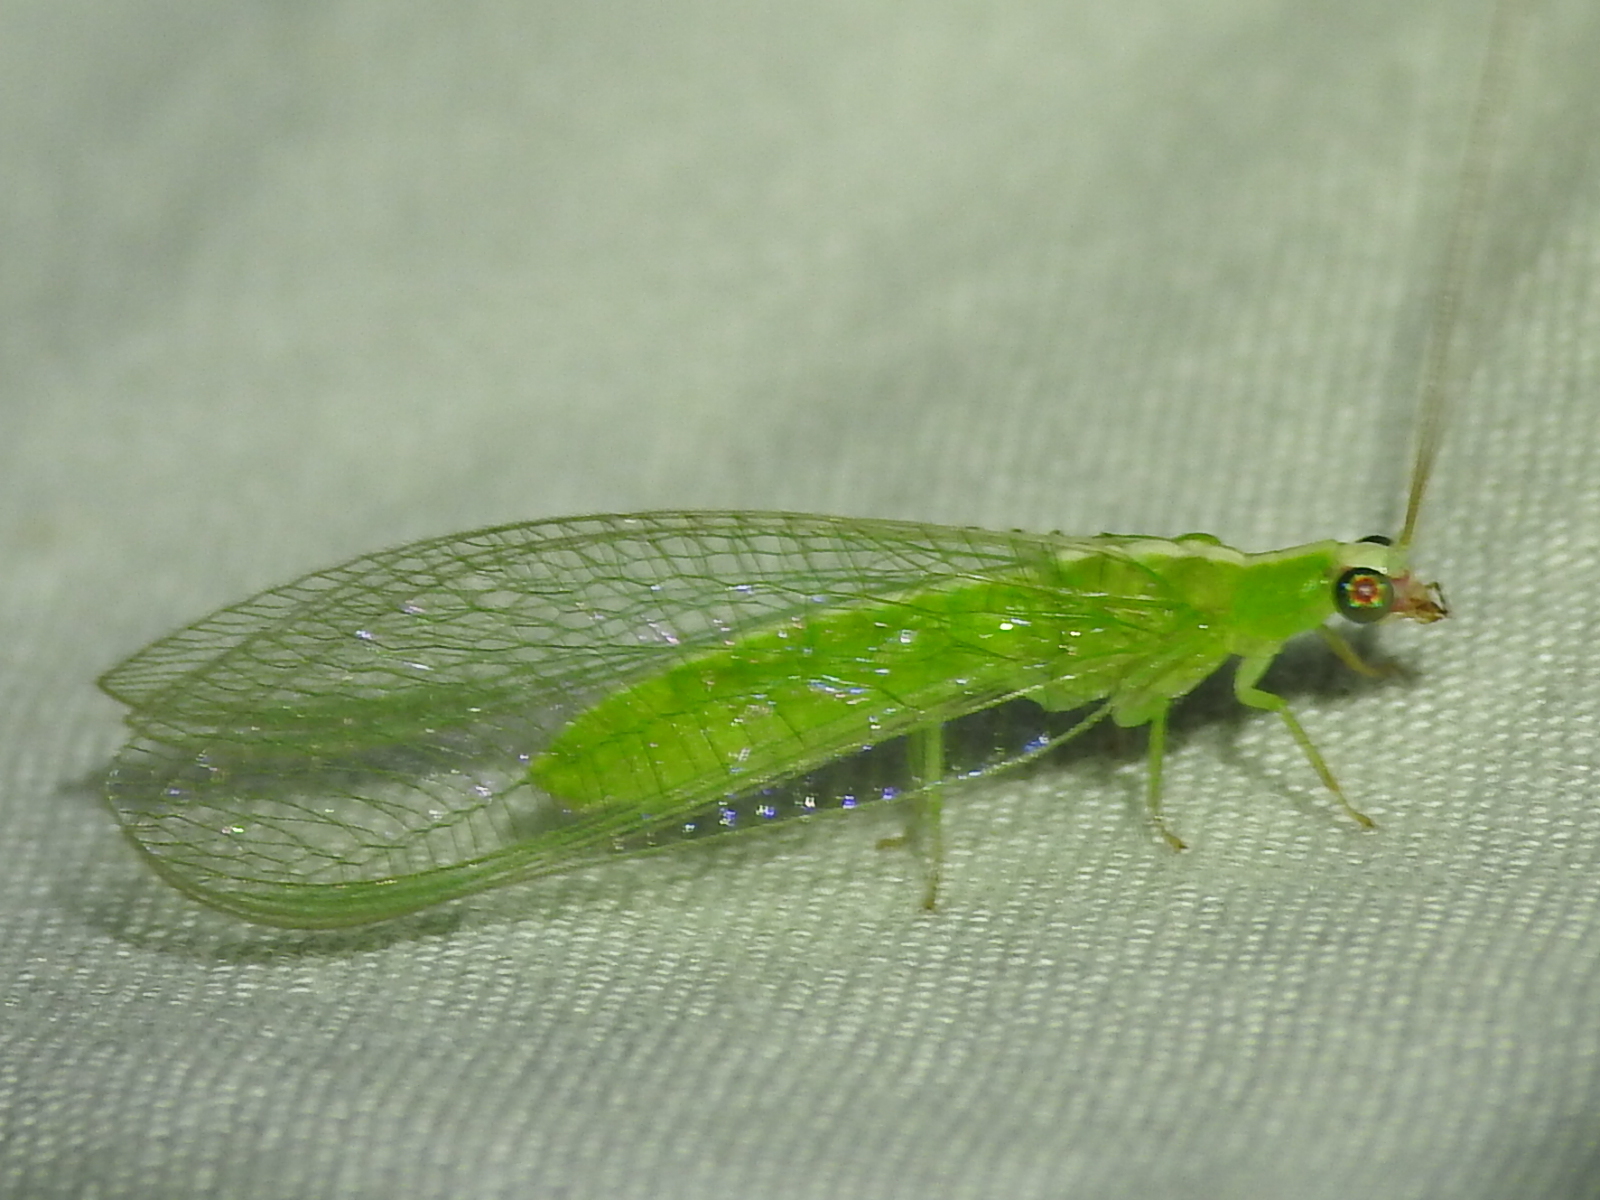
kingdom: Animalia
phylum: Arthropoda
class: Insecta
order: Neuroptera
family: Chrysopidae
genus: Chrysopodes
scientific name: Chrysopodes collaris
